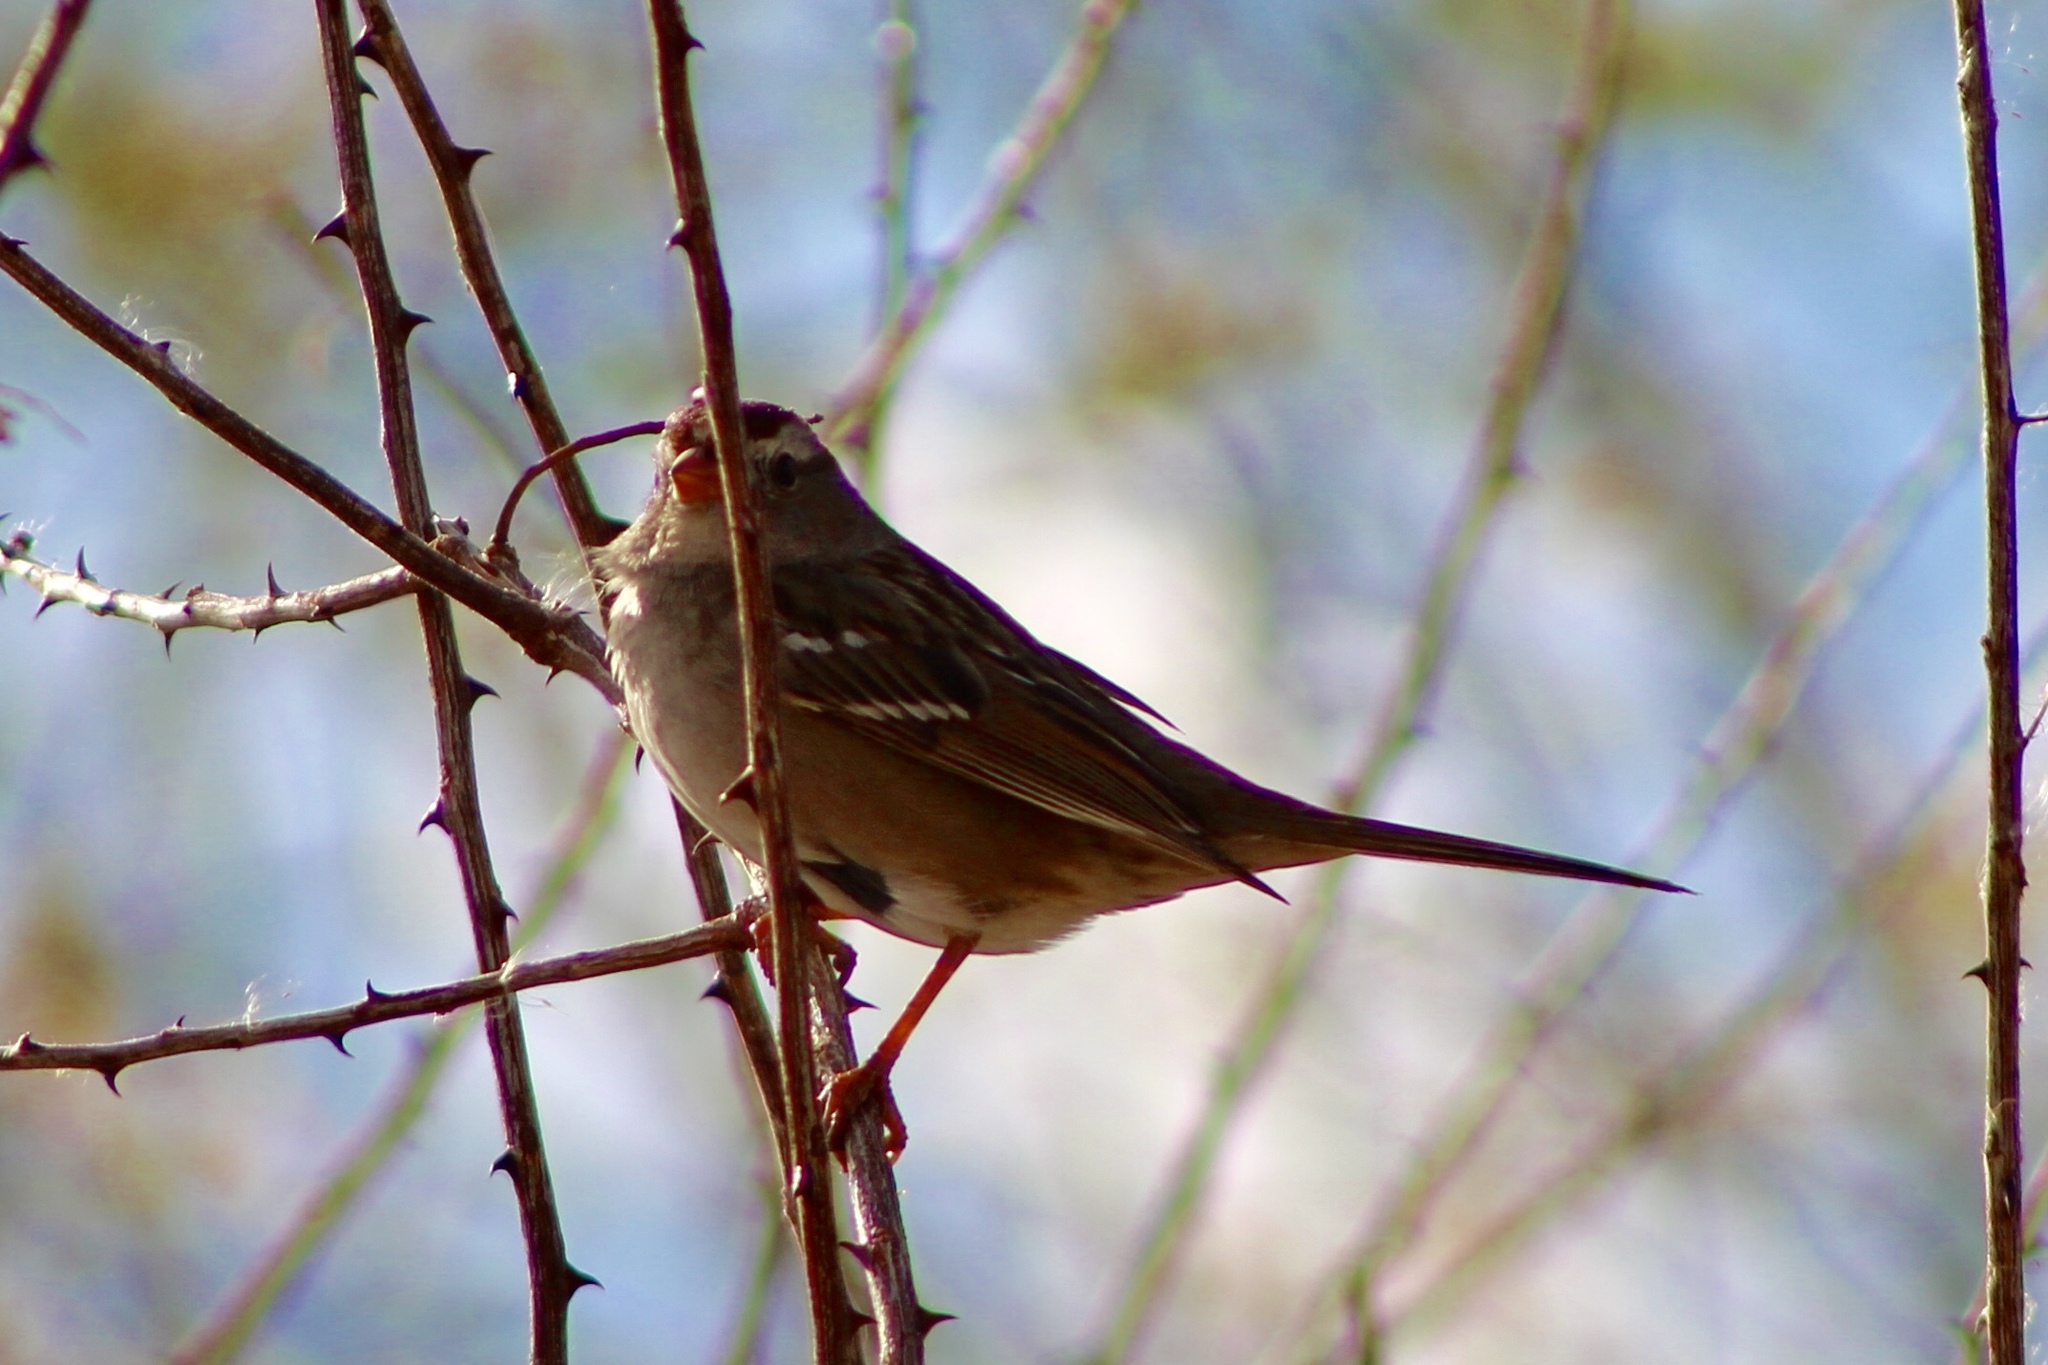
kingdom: Animalia
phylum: Chordata
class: Aves
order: Passeriformes
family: Passerellidae
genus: Zonotrichia
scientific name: Zonotrichia leucophrys
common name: White-crowned sparrow
